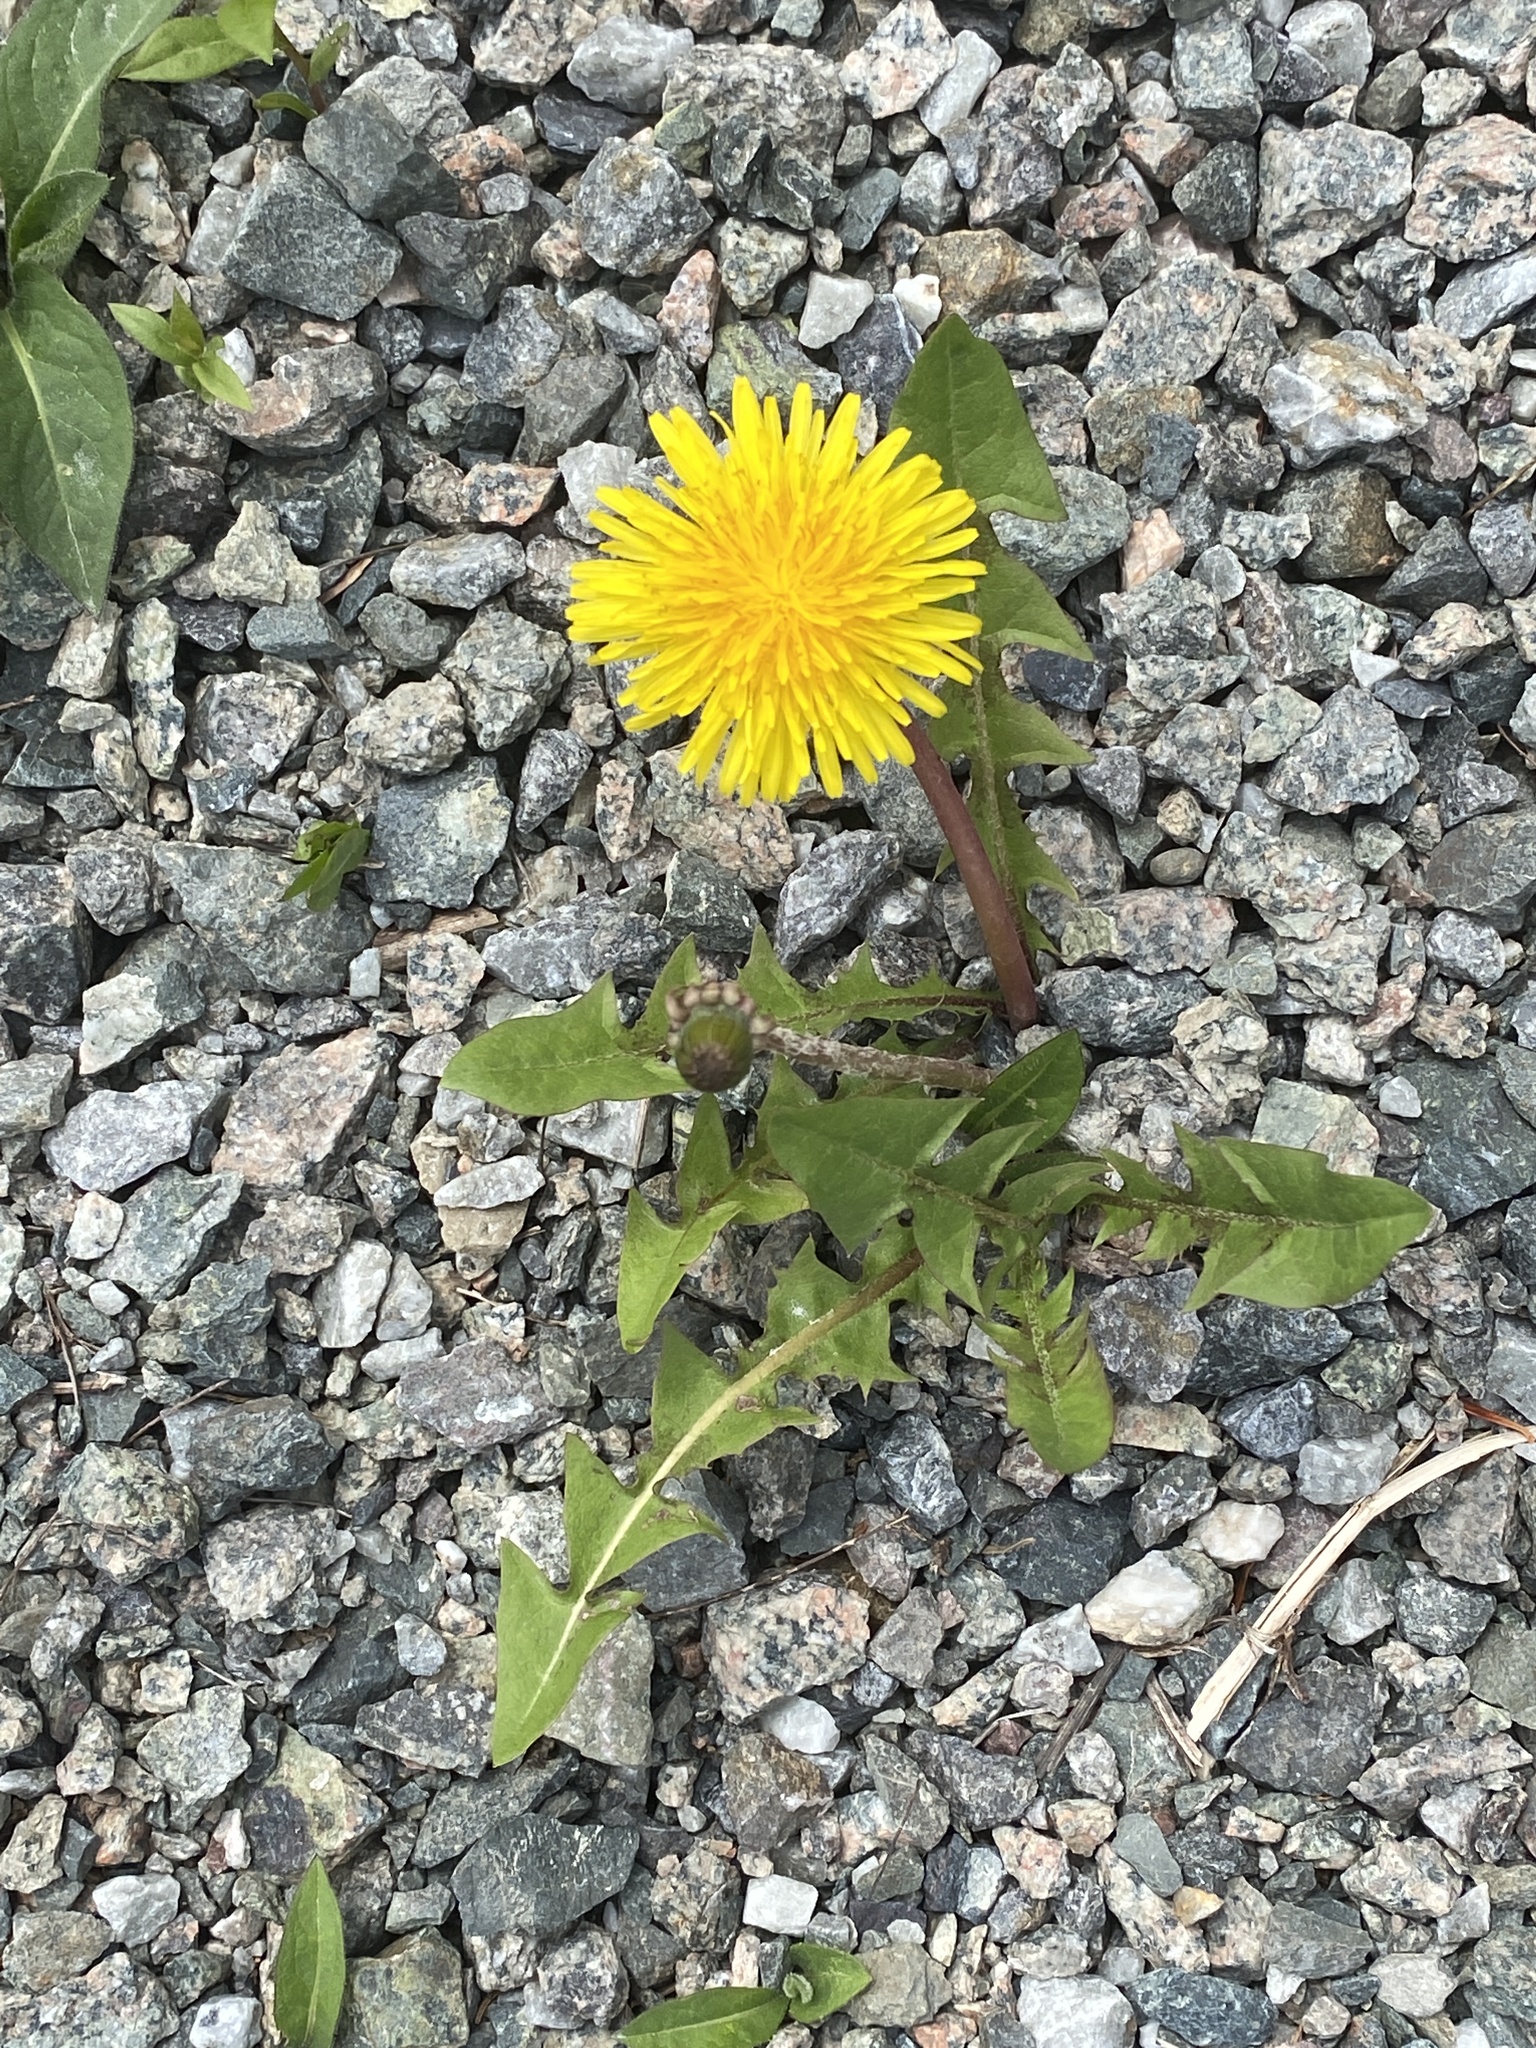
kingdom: Plantae
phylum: Tracheophyta
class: Magnoliopsida
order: Asterales
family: Asteraceae
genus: Taraxacum
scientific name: Taraxacum officinale
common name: Common dandelion
